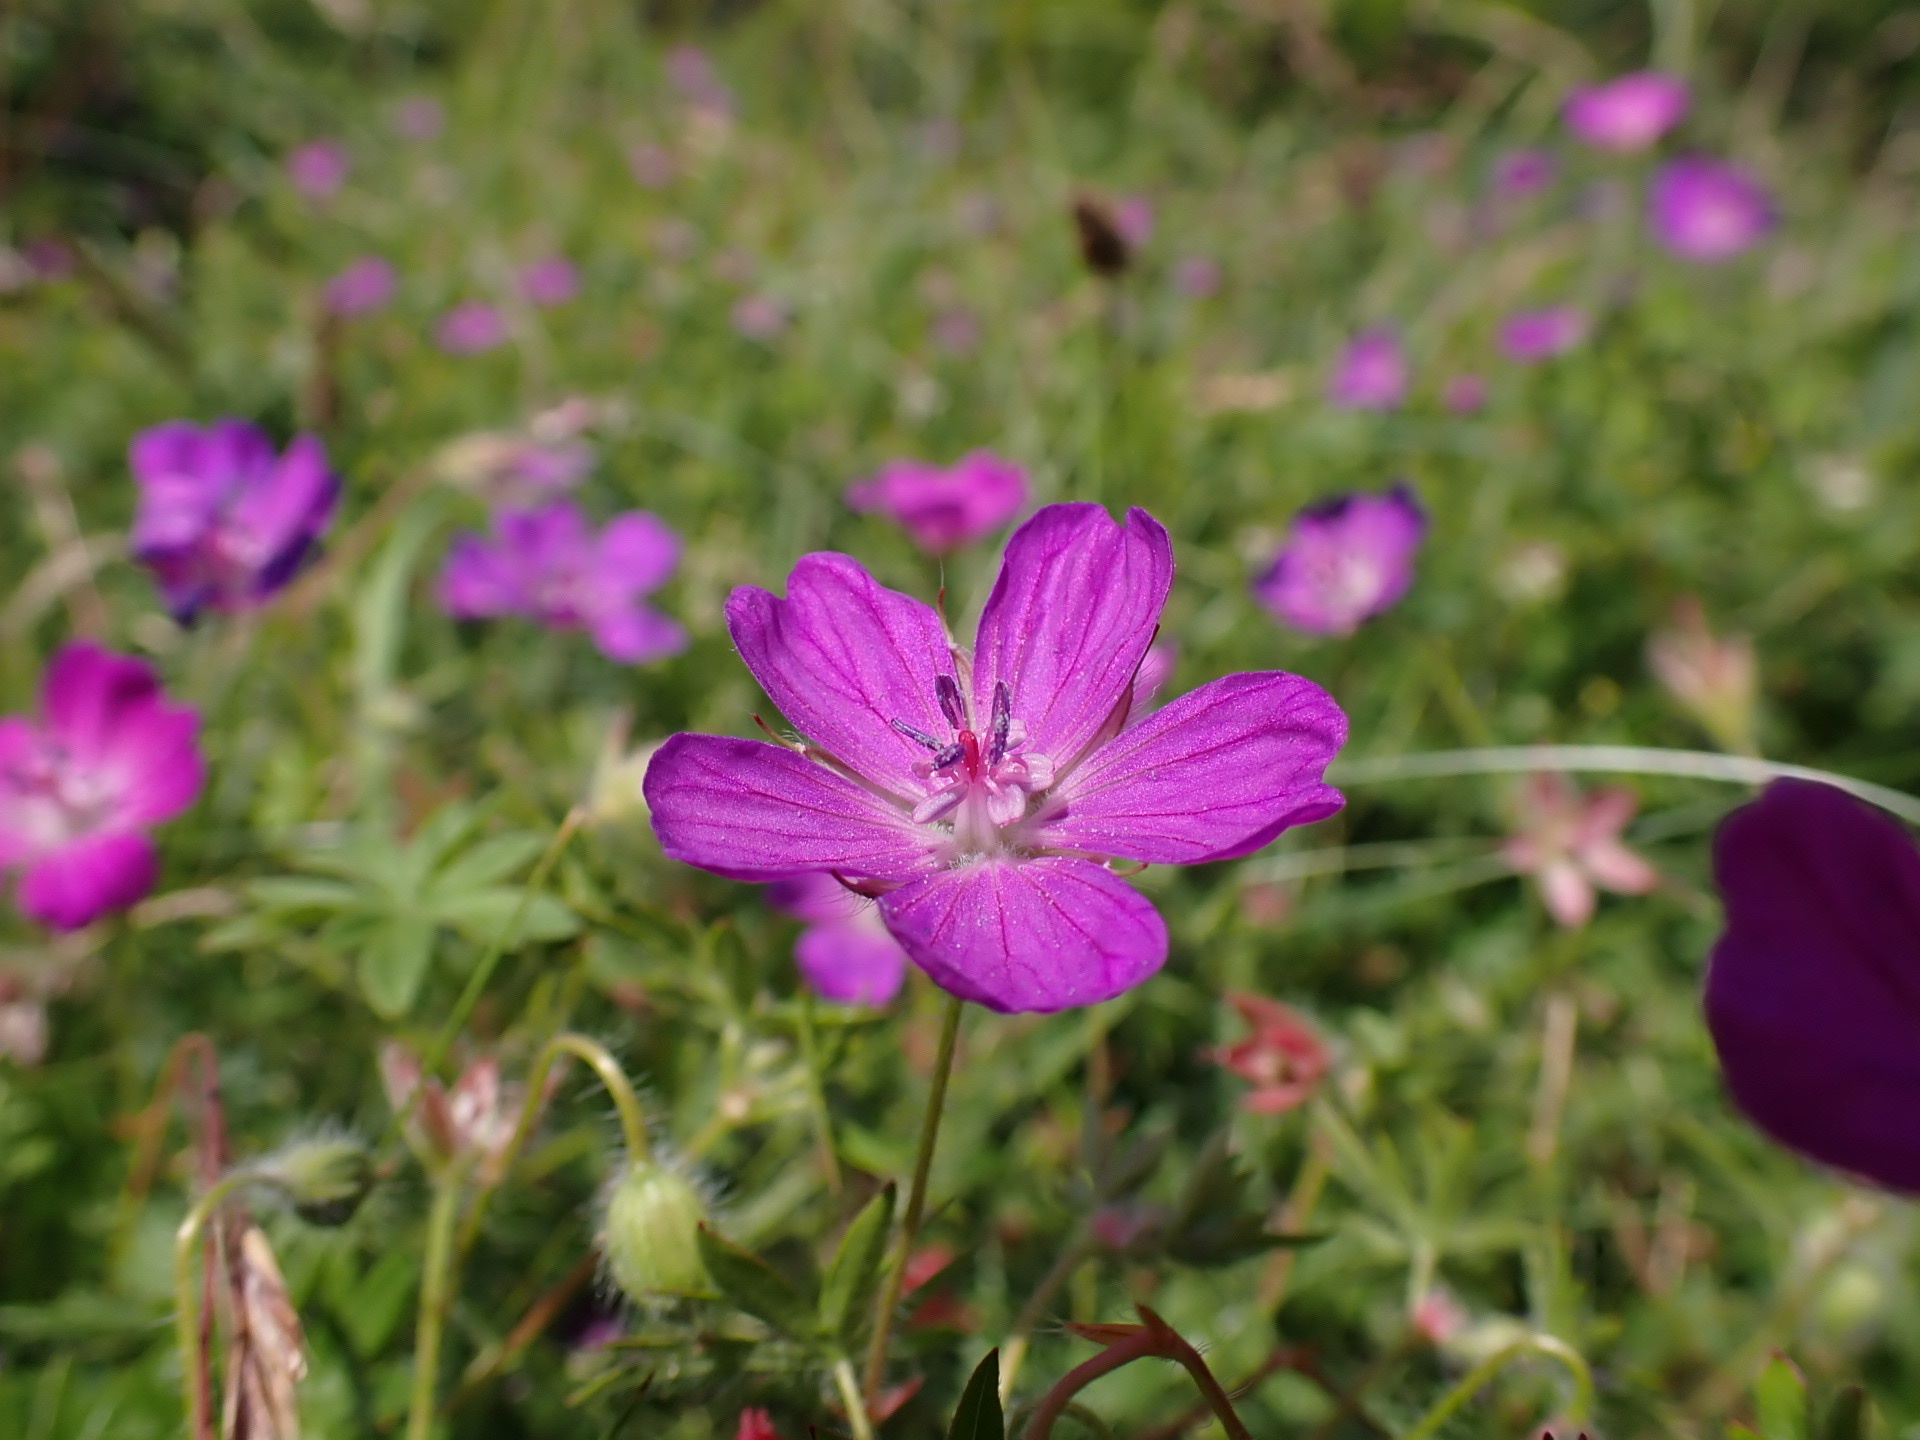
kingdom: Plantae
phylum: Tracheophyta
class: Magnoliopsida
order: Geraniales
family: Geraniaceae
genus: Geranium
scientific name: Geranium sanguineum
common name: Bloody crane's-bill
